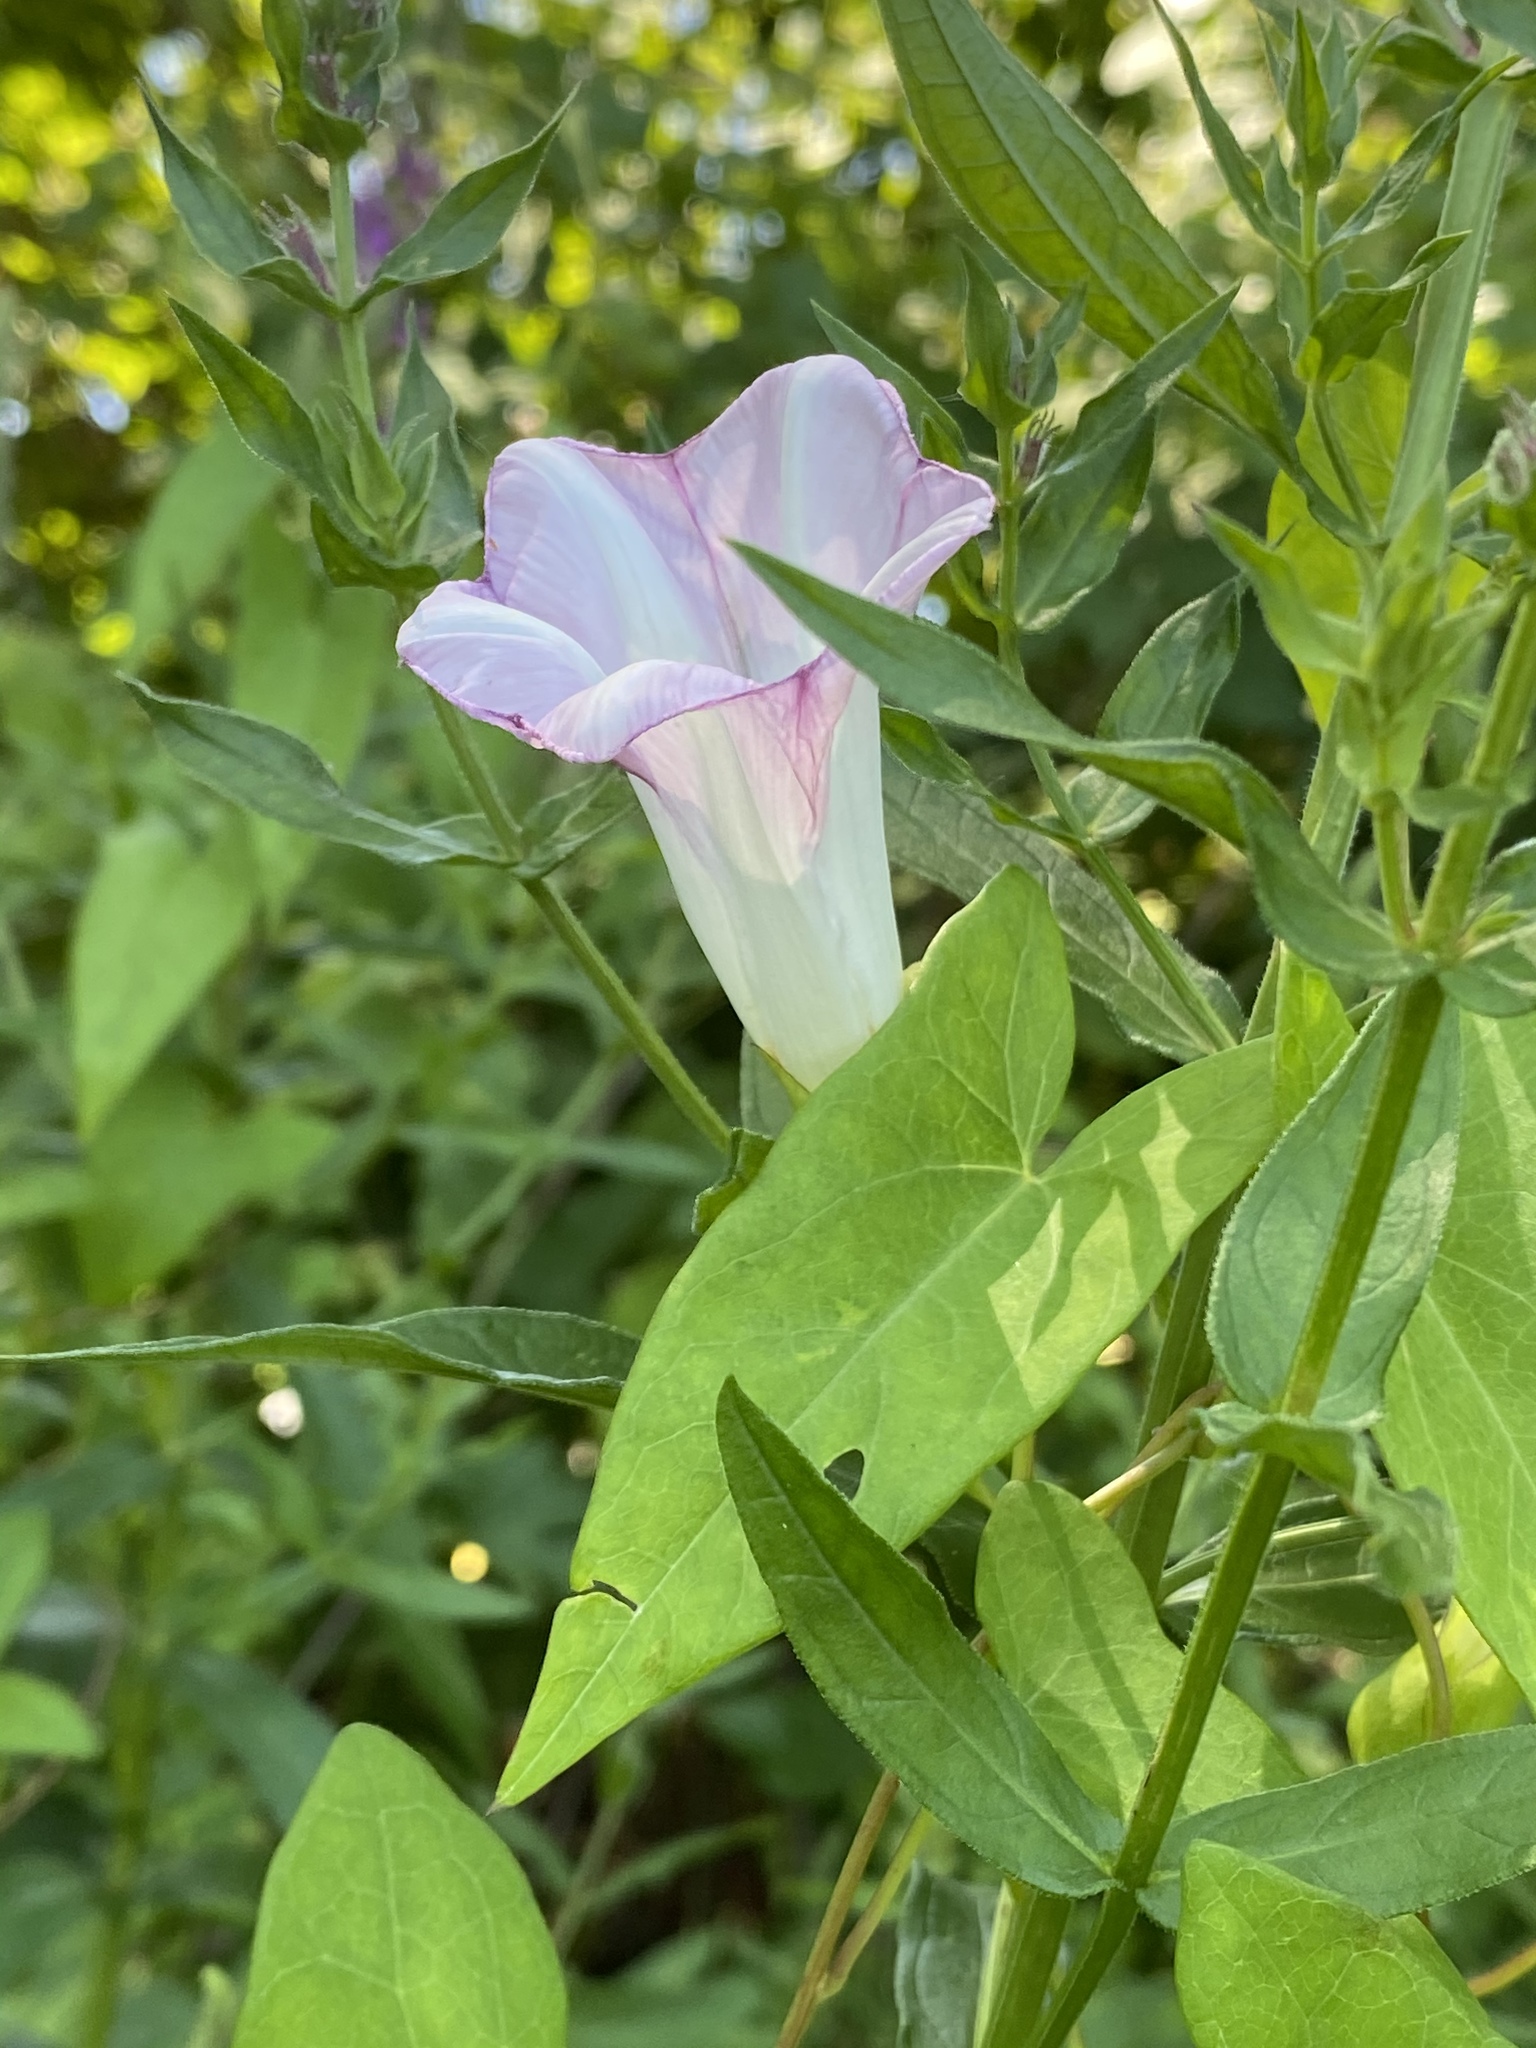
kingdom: Plantae
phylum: Tracheophyta
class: Magnoliopsida
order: Solanales
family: Convolvulaceae
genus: Calystegia
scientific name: Calystegia sepium
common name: Hedge bindweed
